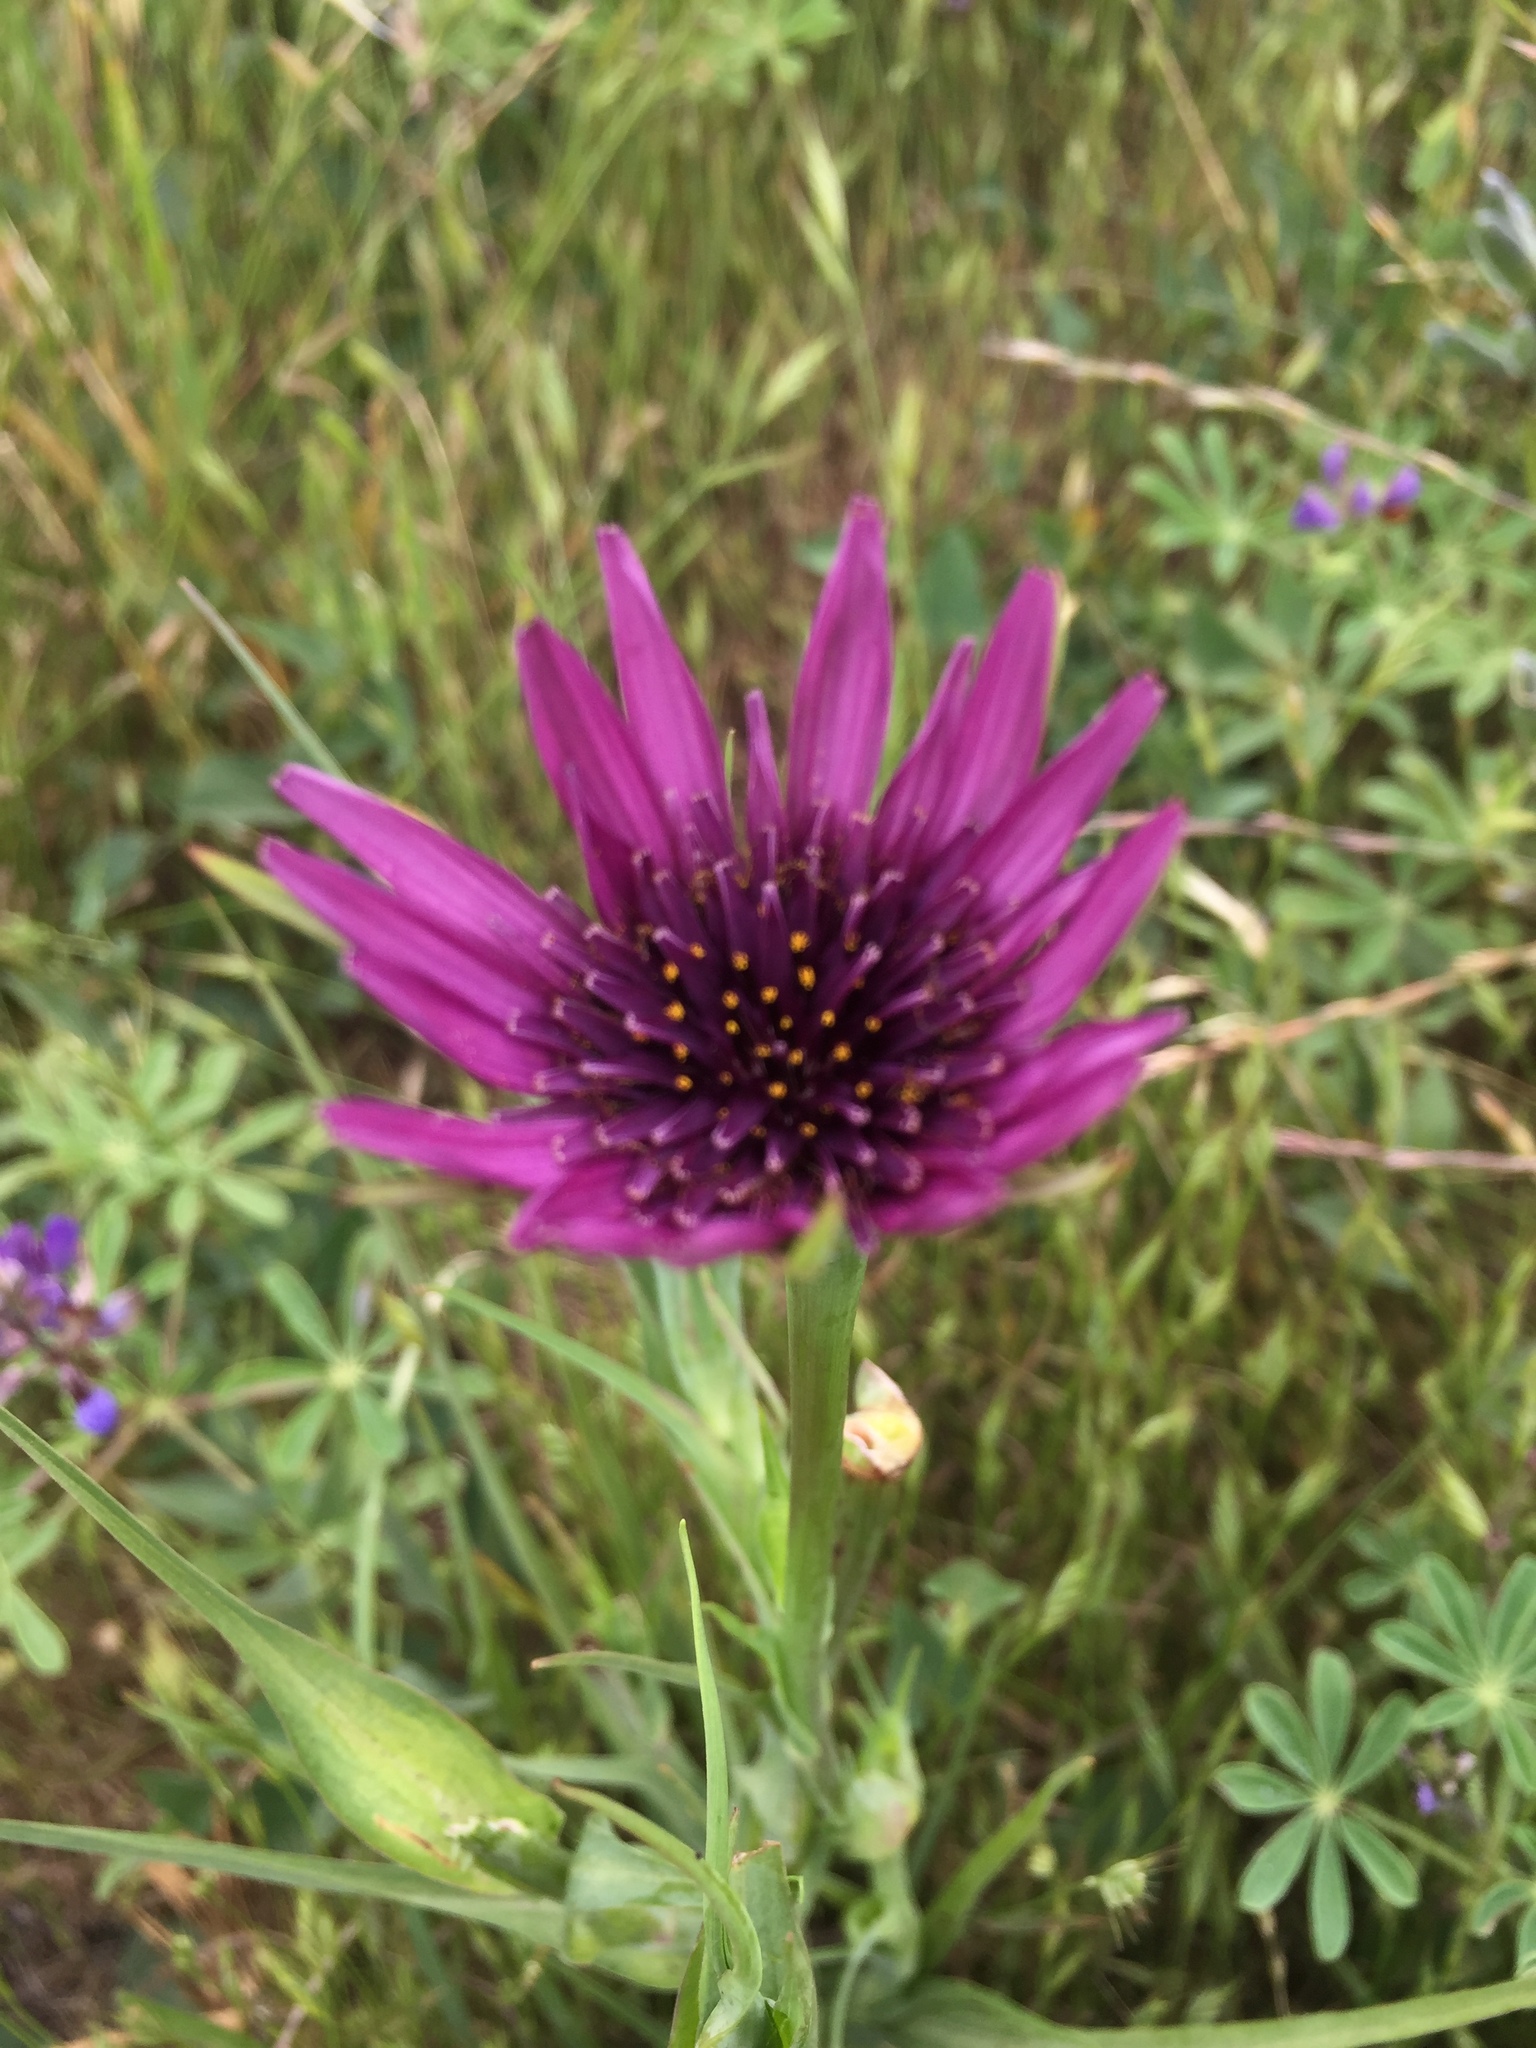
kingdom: Plantae
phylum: Tracheophyta
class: Magnoliopsida
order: Asterales
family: Asteraceae
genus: Tragopogon
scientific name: Tragopogon porrifolius
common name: Salsify
